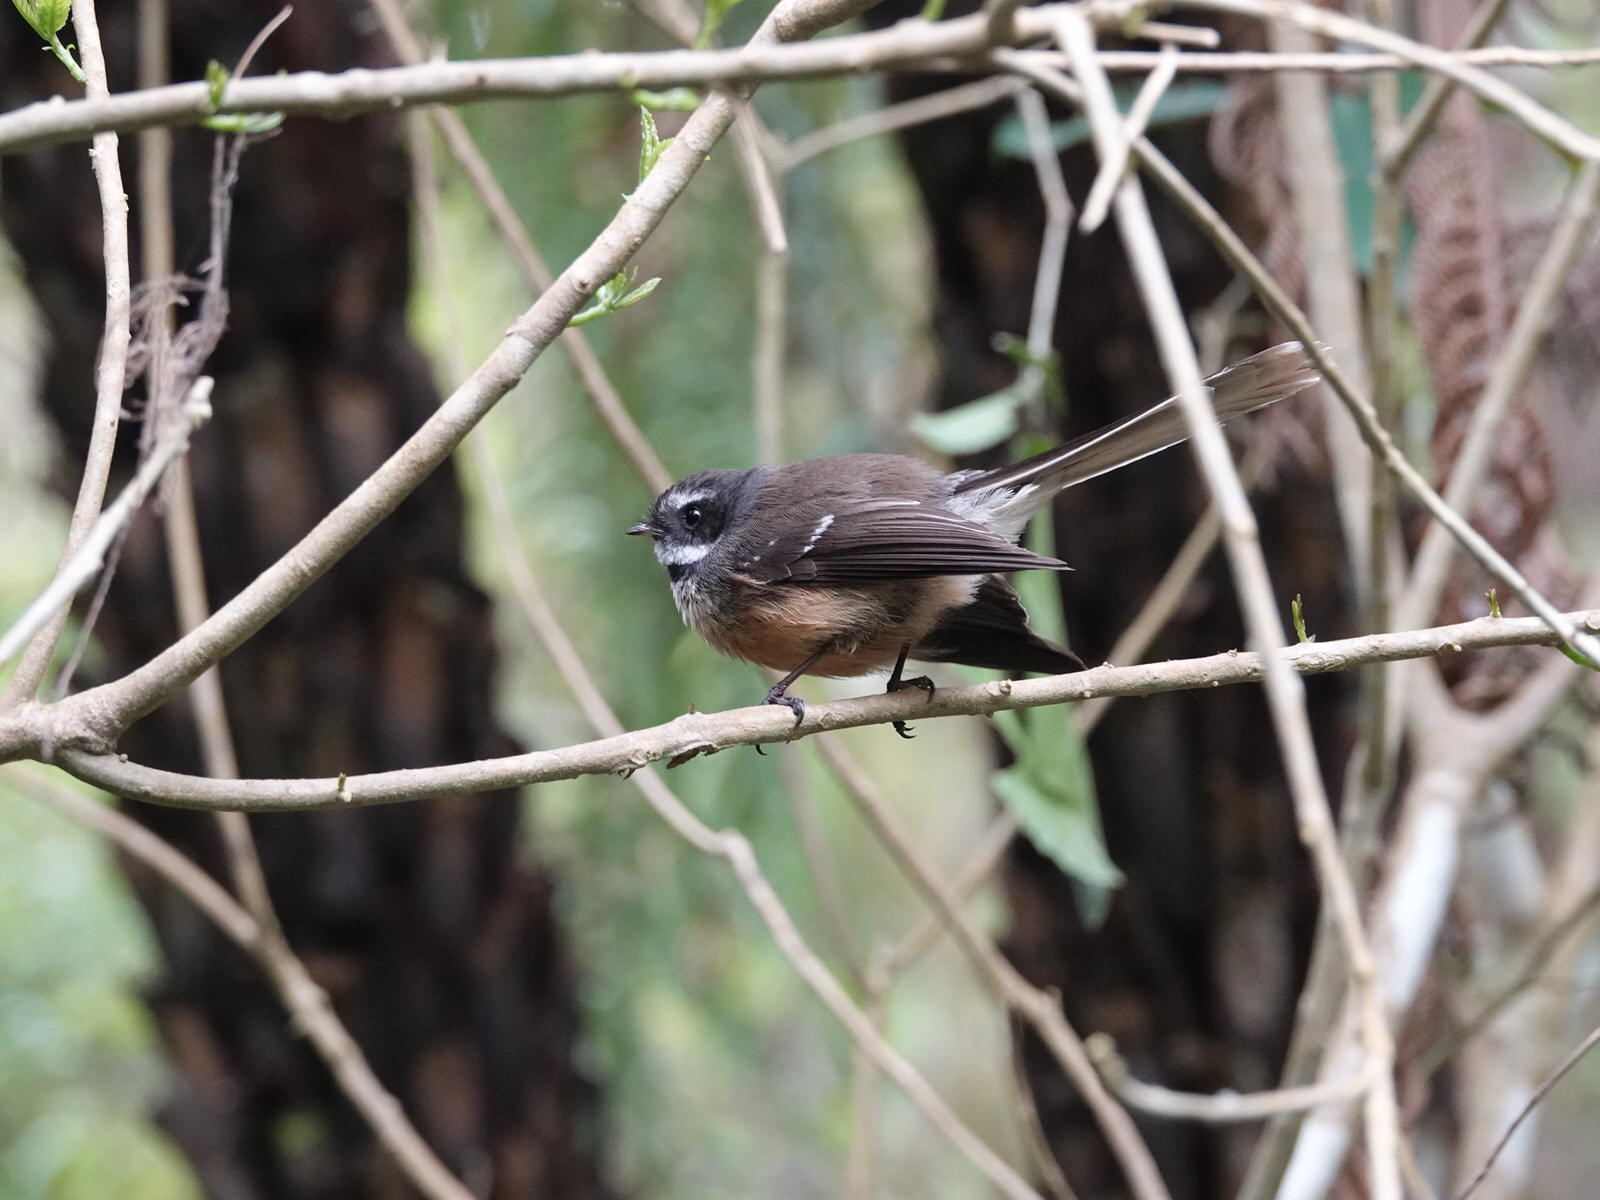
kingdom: Animalia
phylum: Chordata
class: Aves
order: Passeriformes
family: Rhipiduridae
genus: Rhipidura
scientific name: Rhipidura fuliginosa
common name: New zealand fantail
